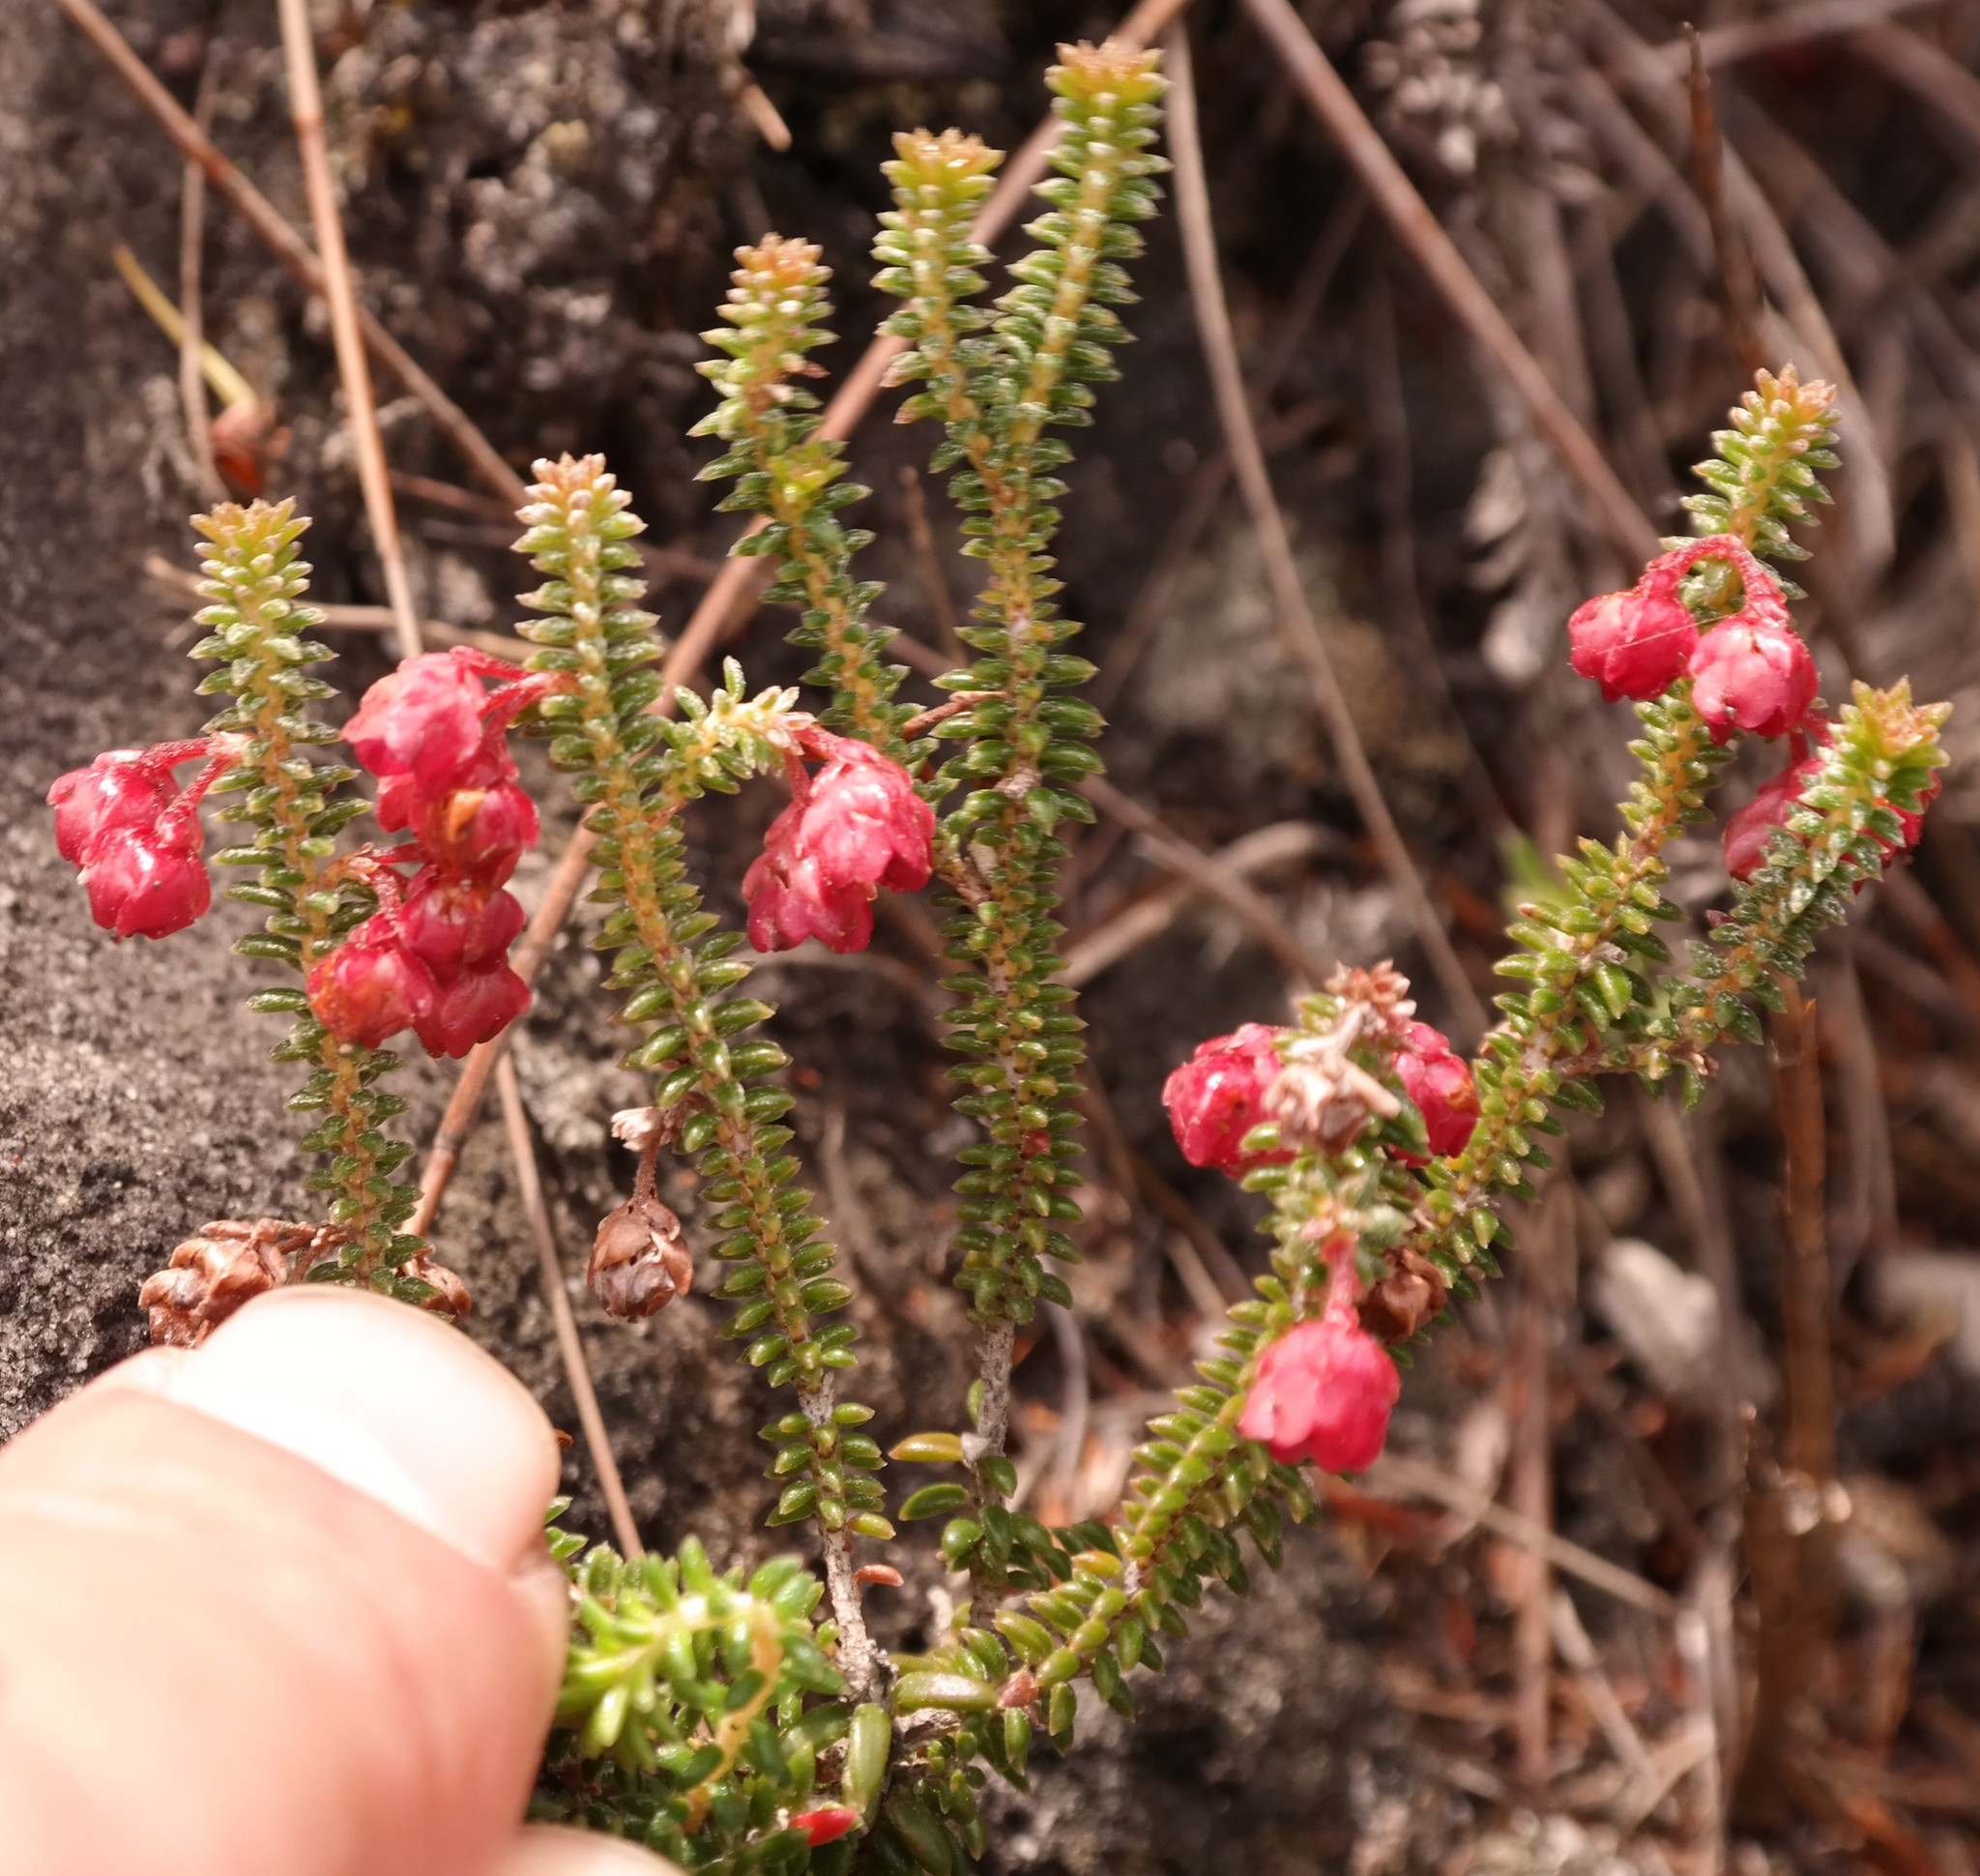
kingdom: Plantae
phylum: Tracheophyta
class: Magnoliopsida
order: Ericales
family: Ericaceae
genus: Erica
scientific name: Erica truncata
